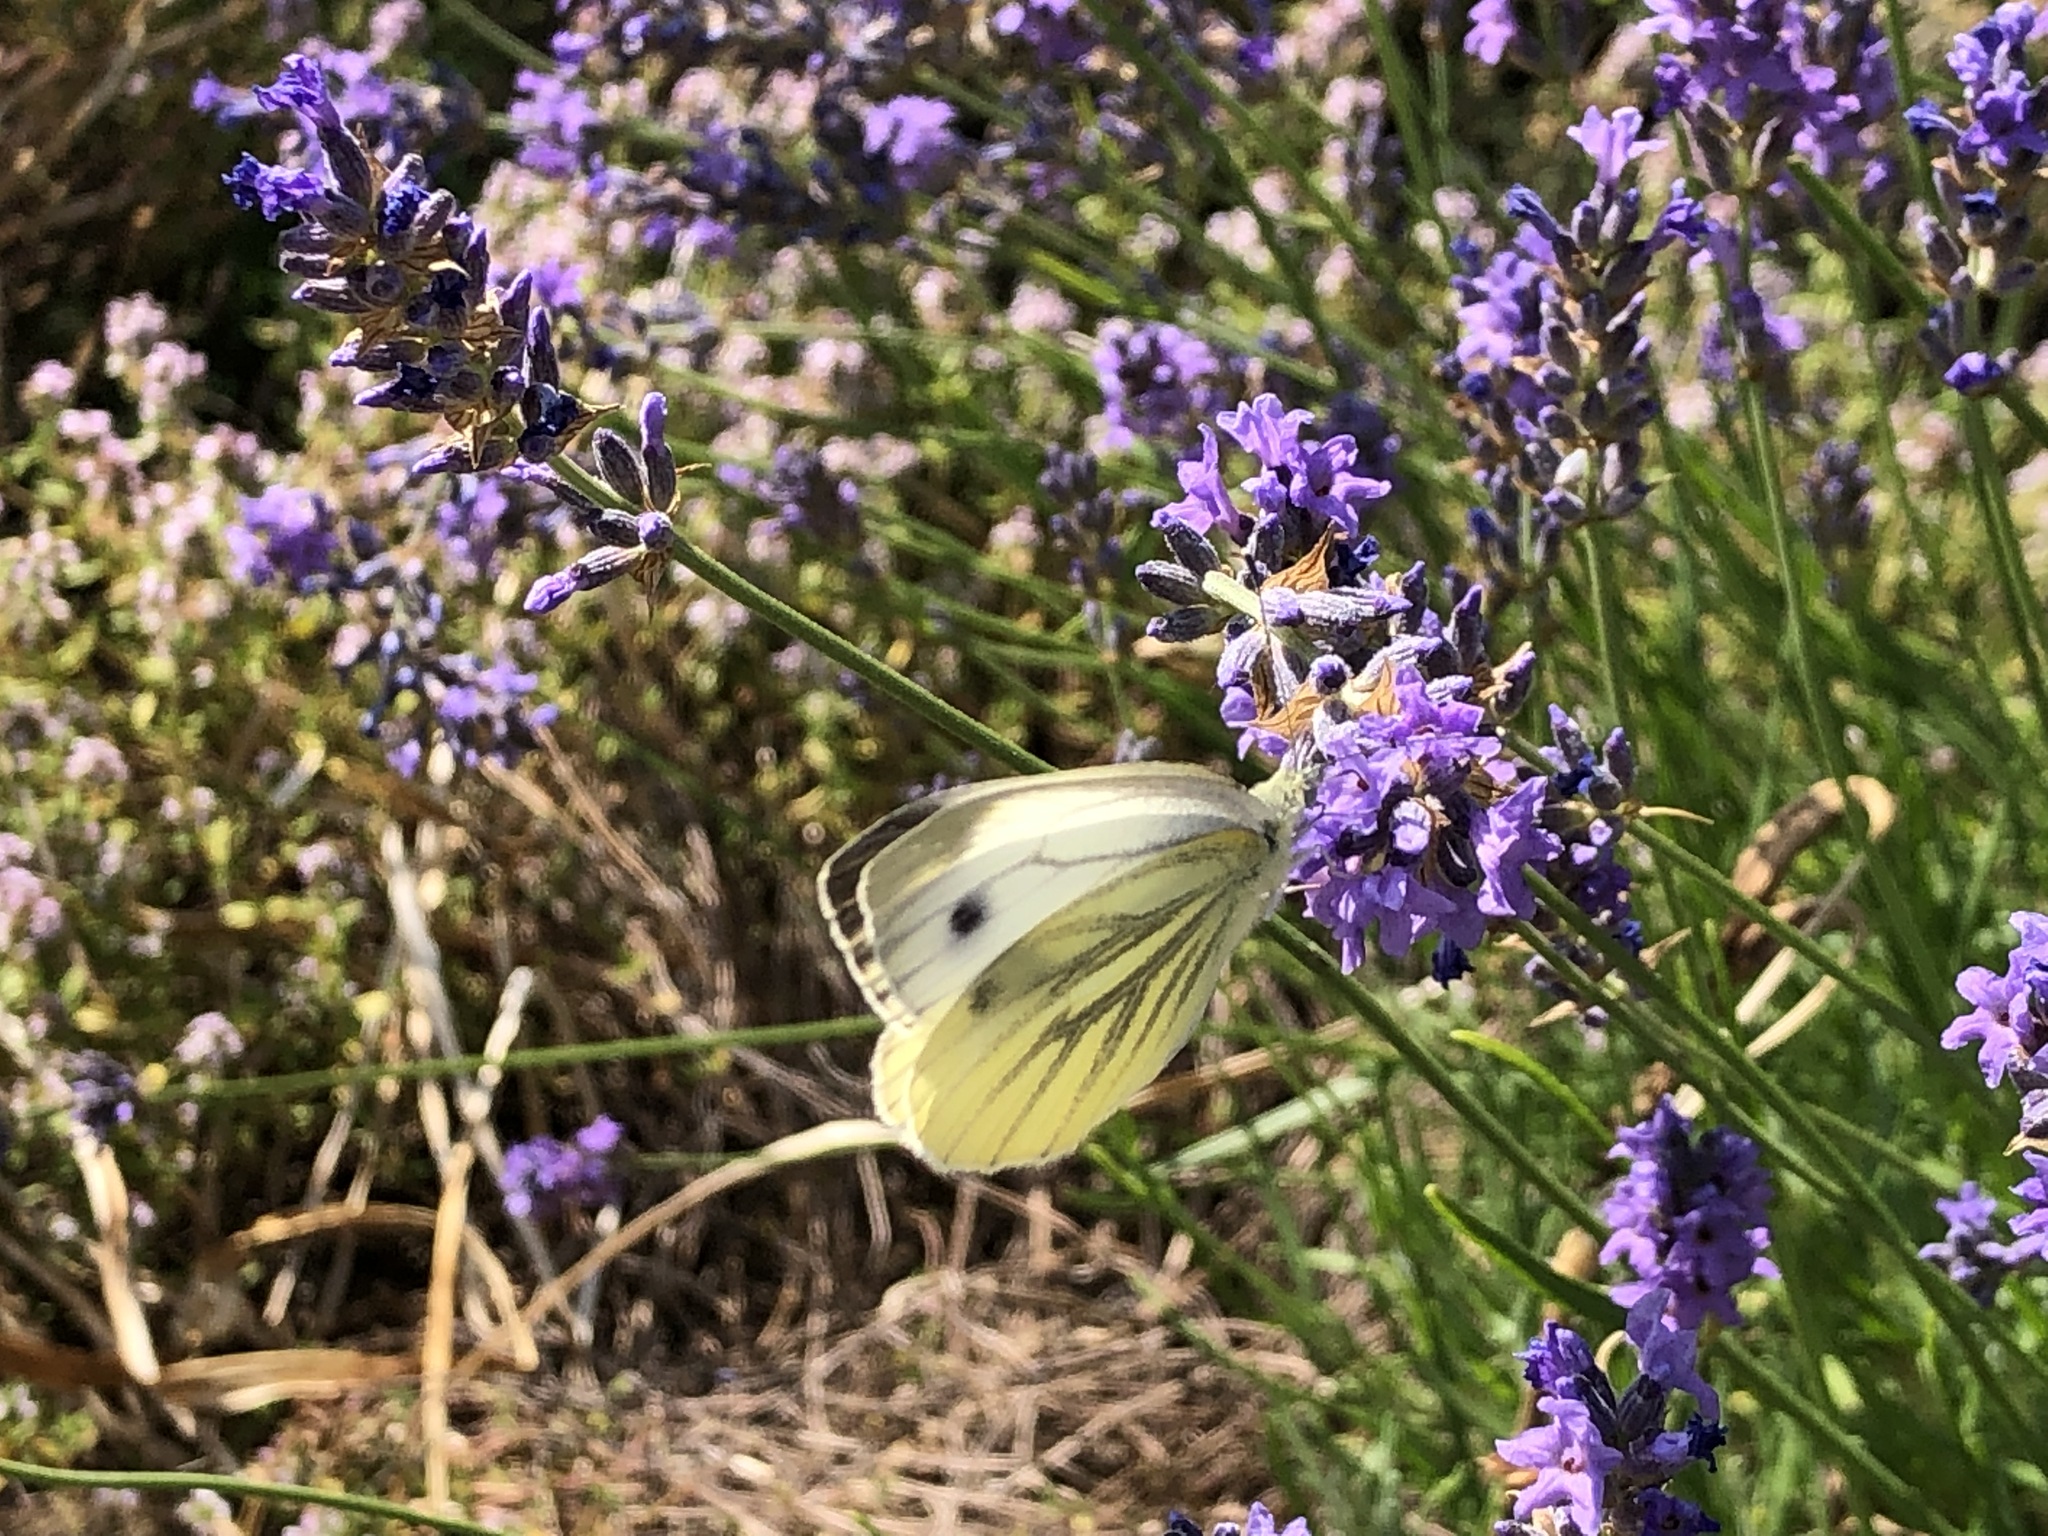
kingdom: Animalia
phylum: Arthropoda
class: Insecta
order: Lepidoptera
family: Pieridae
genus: Pieris
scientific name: Pieris napi
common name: Green-veined white
